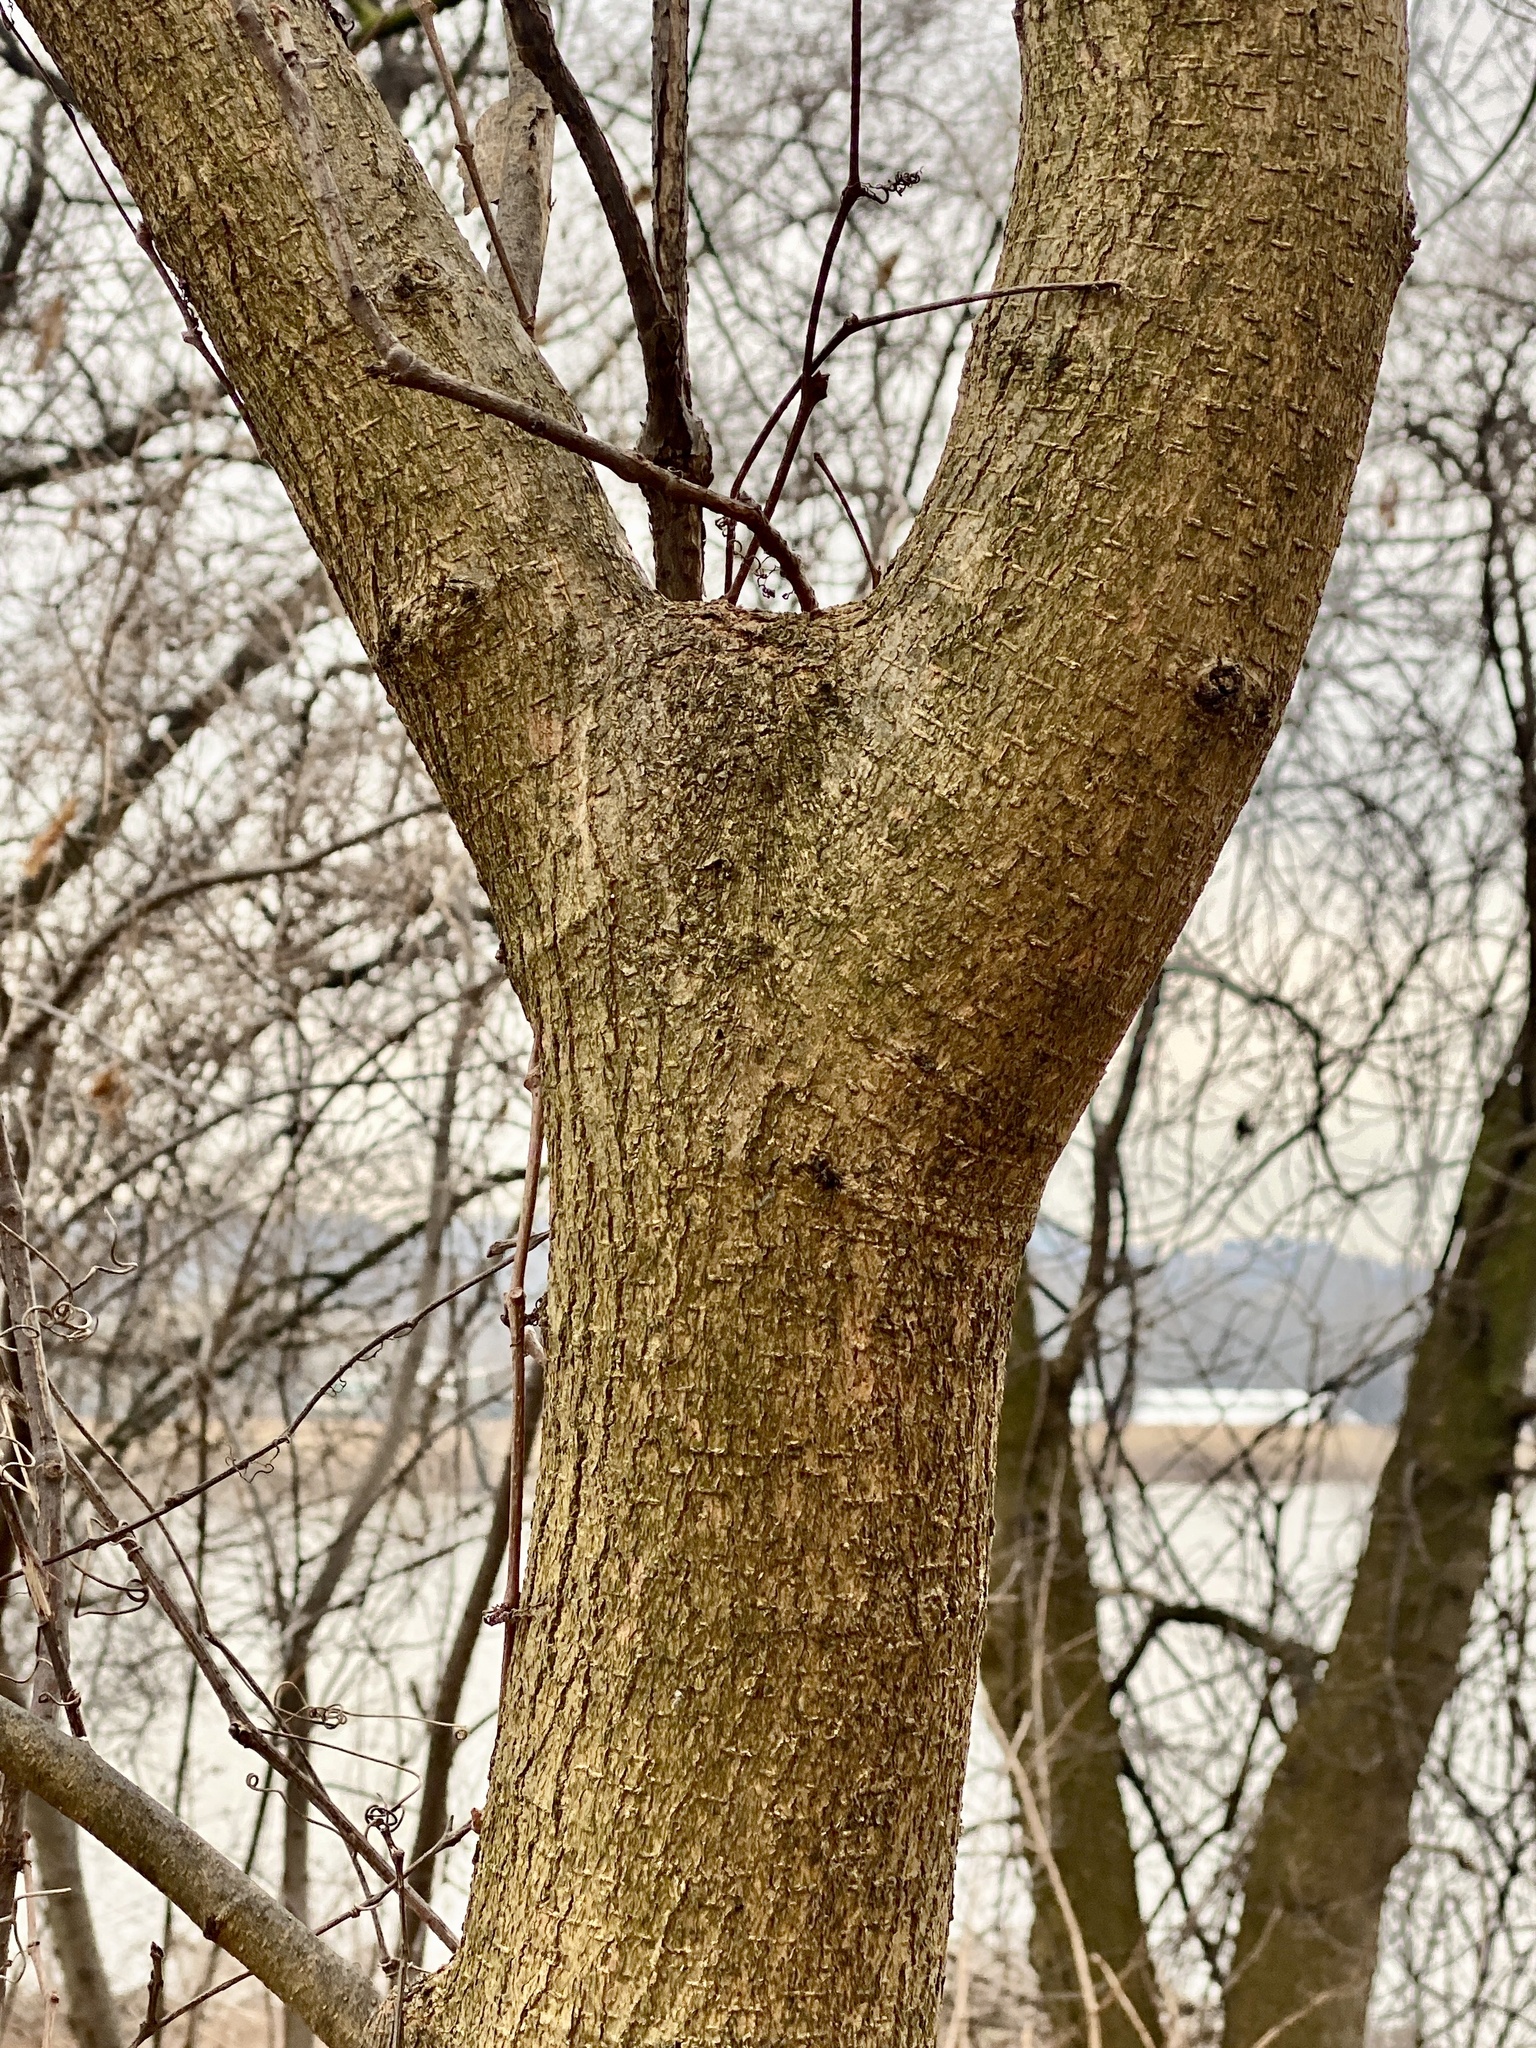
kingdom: Plantae
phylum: Tracheophyta
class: Magnoliopsida
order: Sapindales
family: Sapindaceae
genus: Acer
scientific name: Acer negundo
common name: Ashleaf maple
